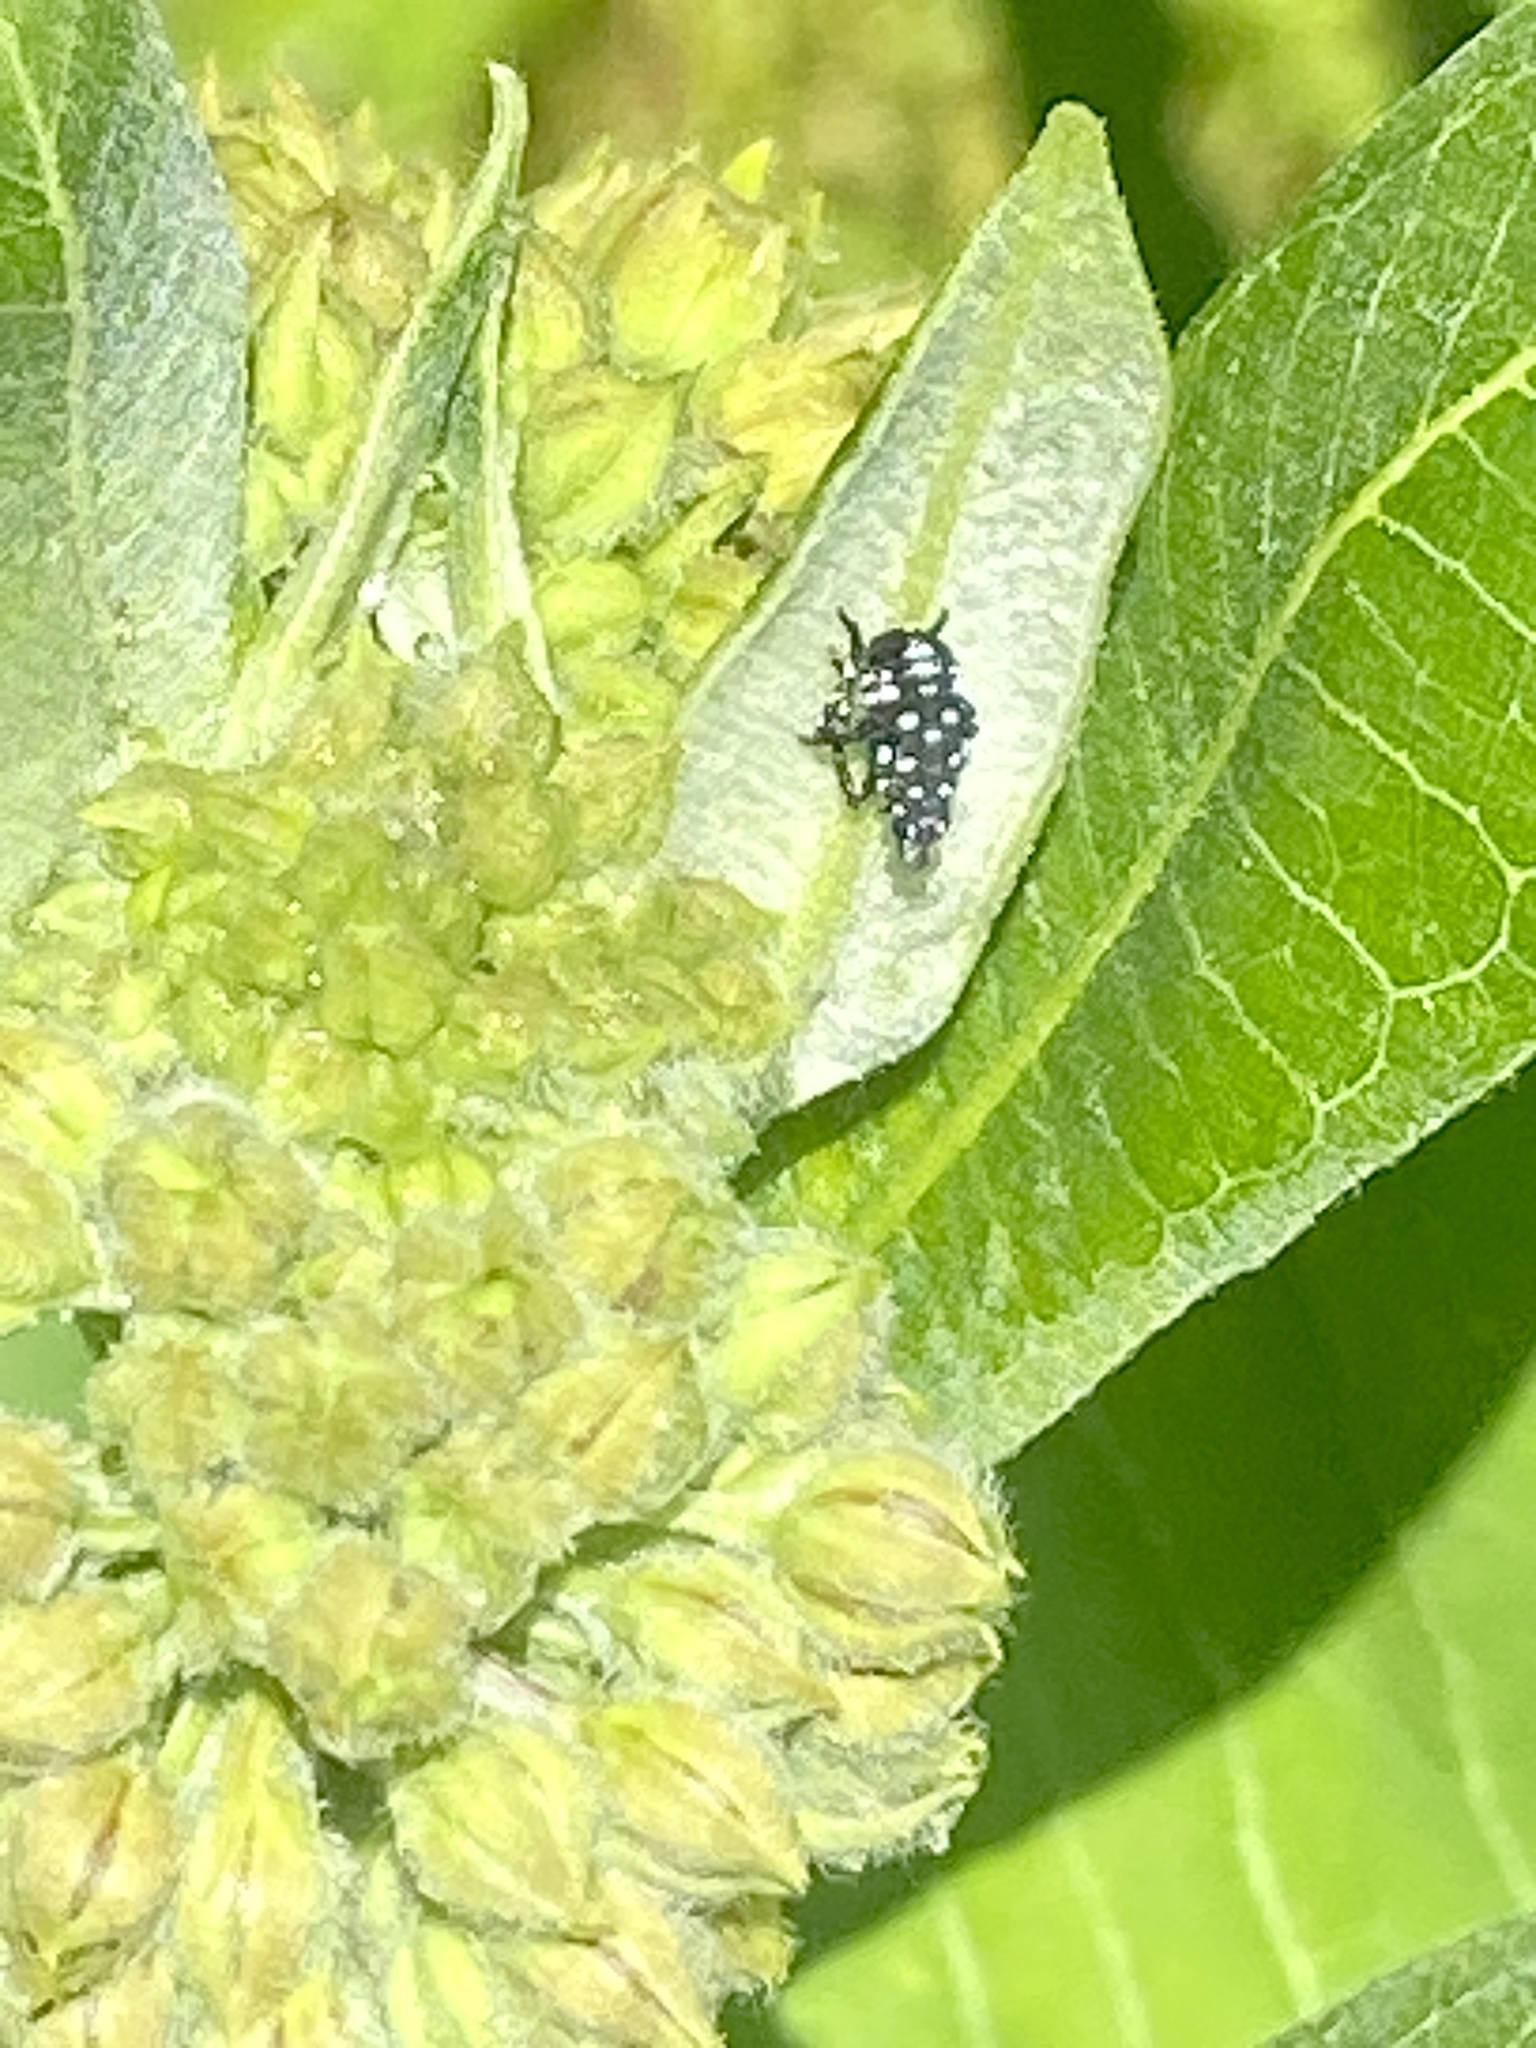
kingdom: Animalia
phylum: Arthropoda
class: Insecta
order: Hemiptera
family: Fulgoridae
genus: Lycorma
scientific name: Lycorma delicatula
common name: Spotted lanternfly
